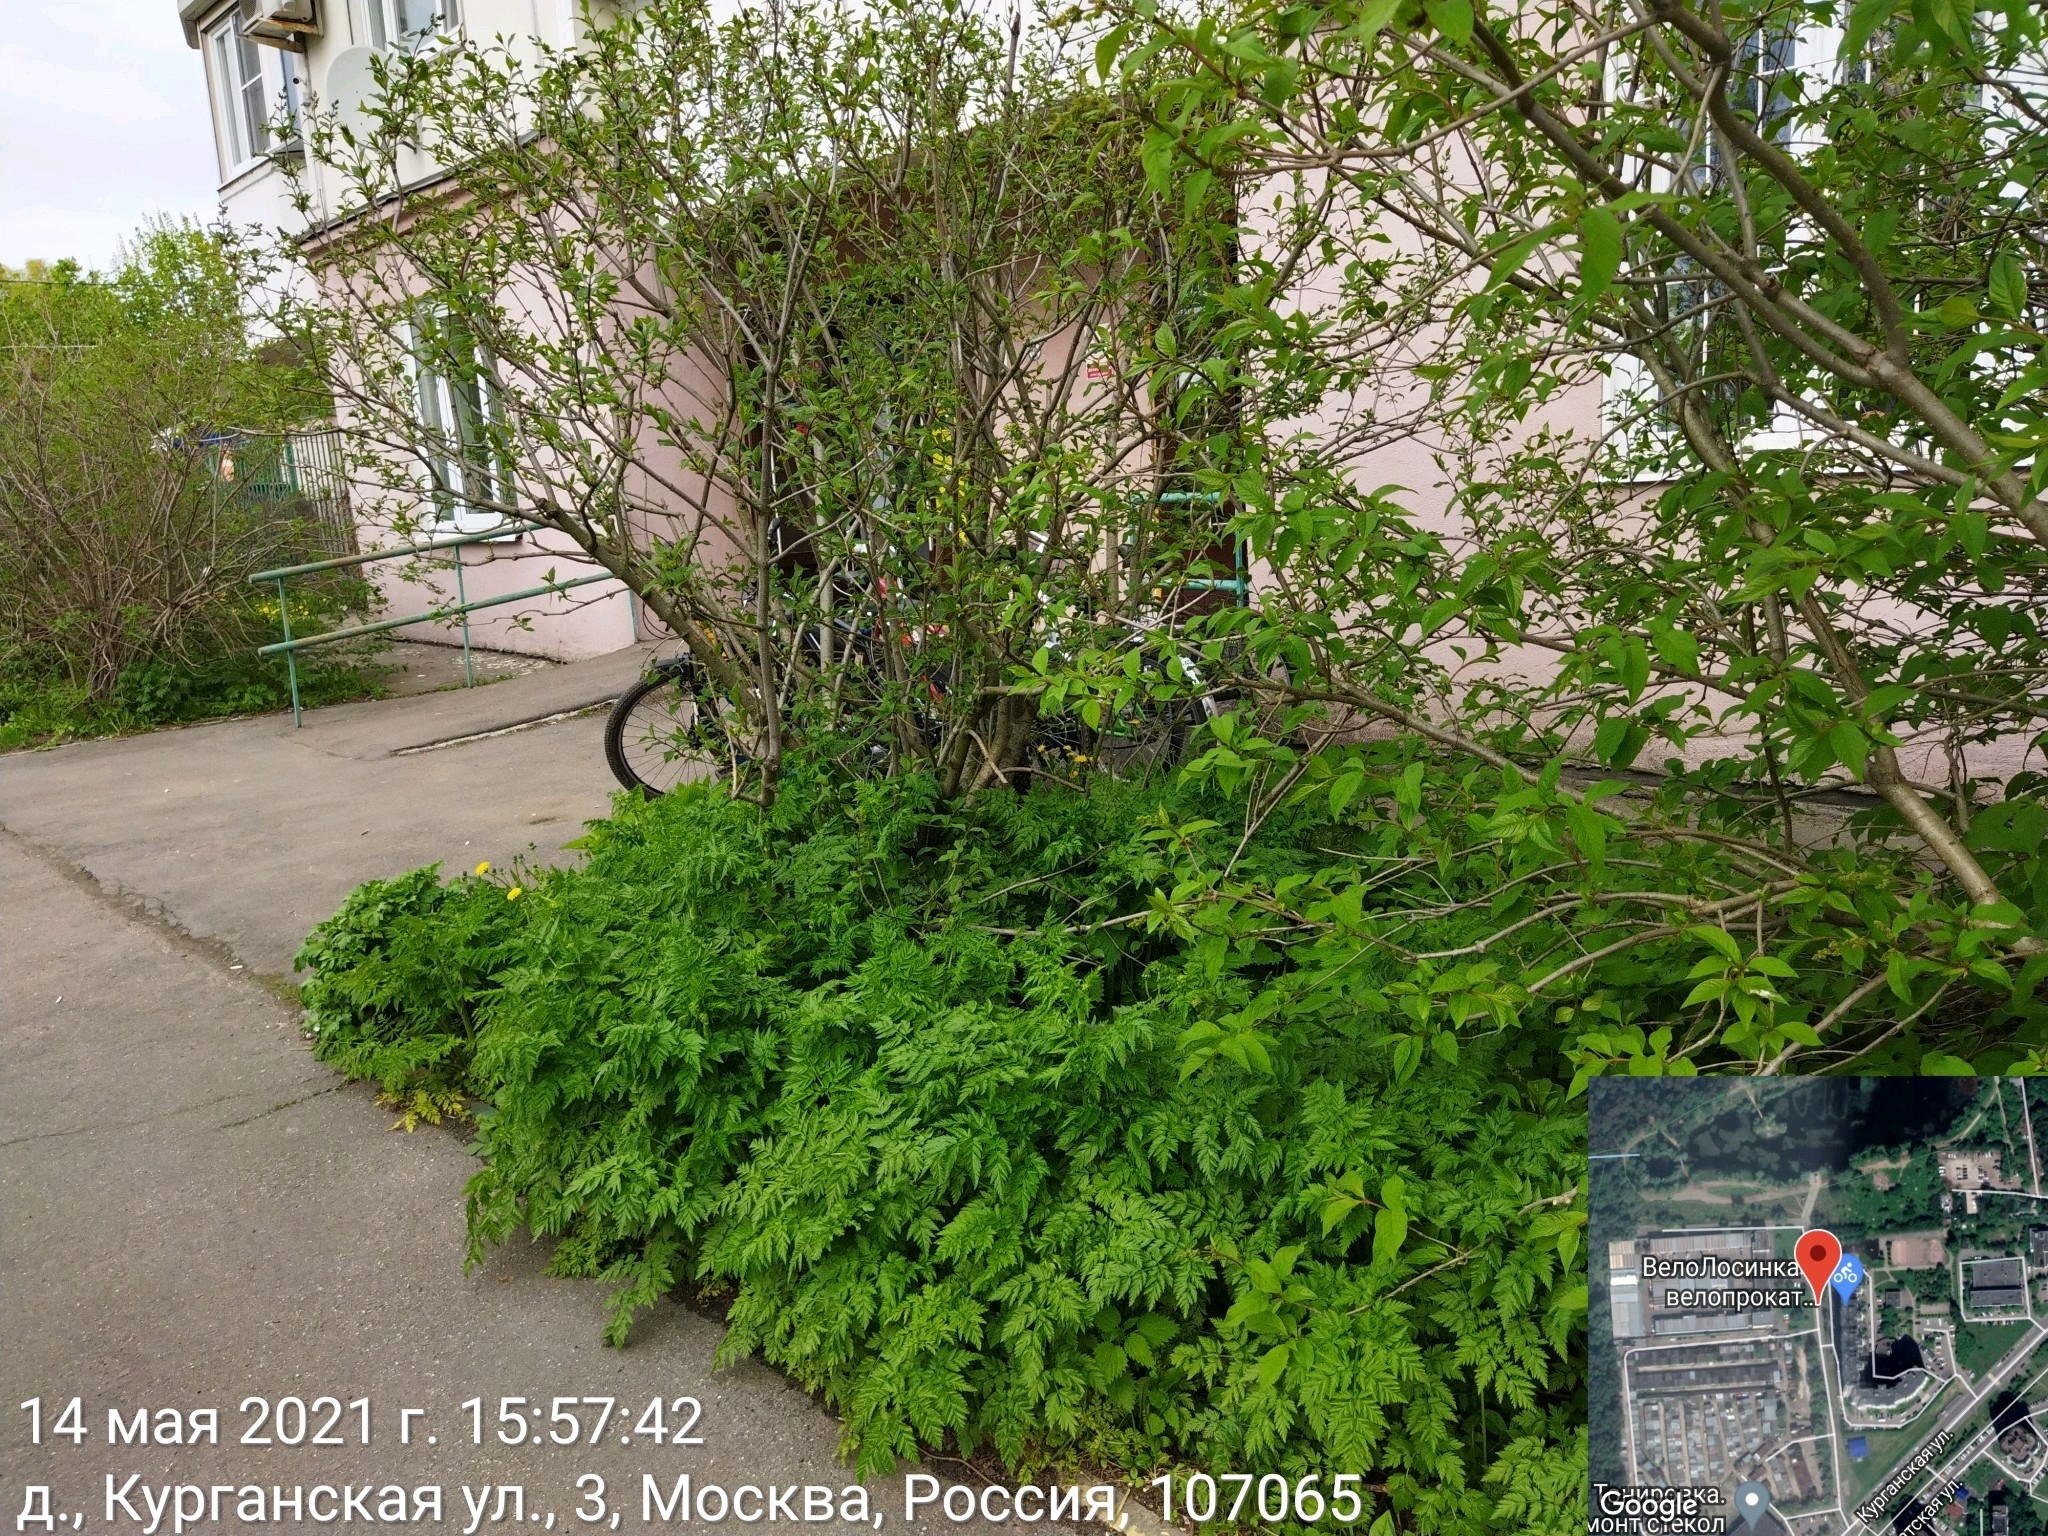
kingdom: Plantae
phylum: Tracheophyta
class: Magnoliopsida
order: Apiales
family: Apiaceae
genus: Anthriscus
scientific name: Anthriscus sylvestris
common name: Cow parsley
